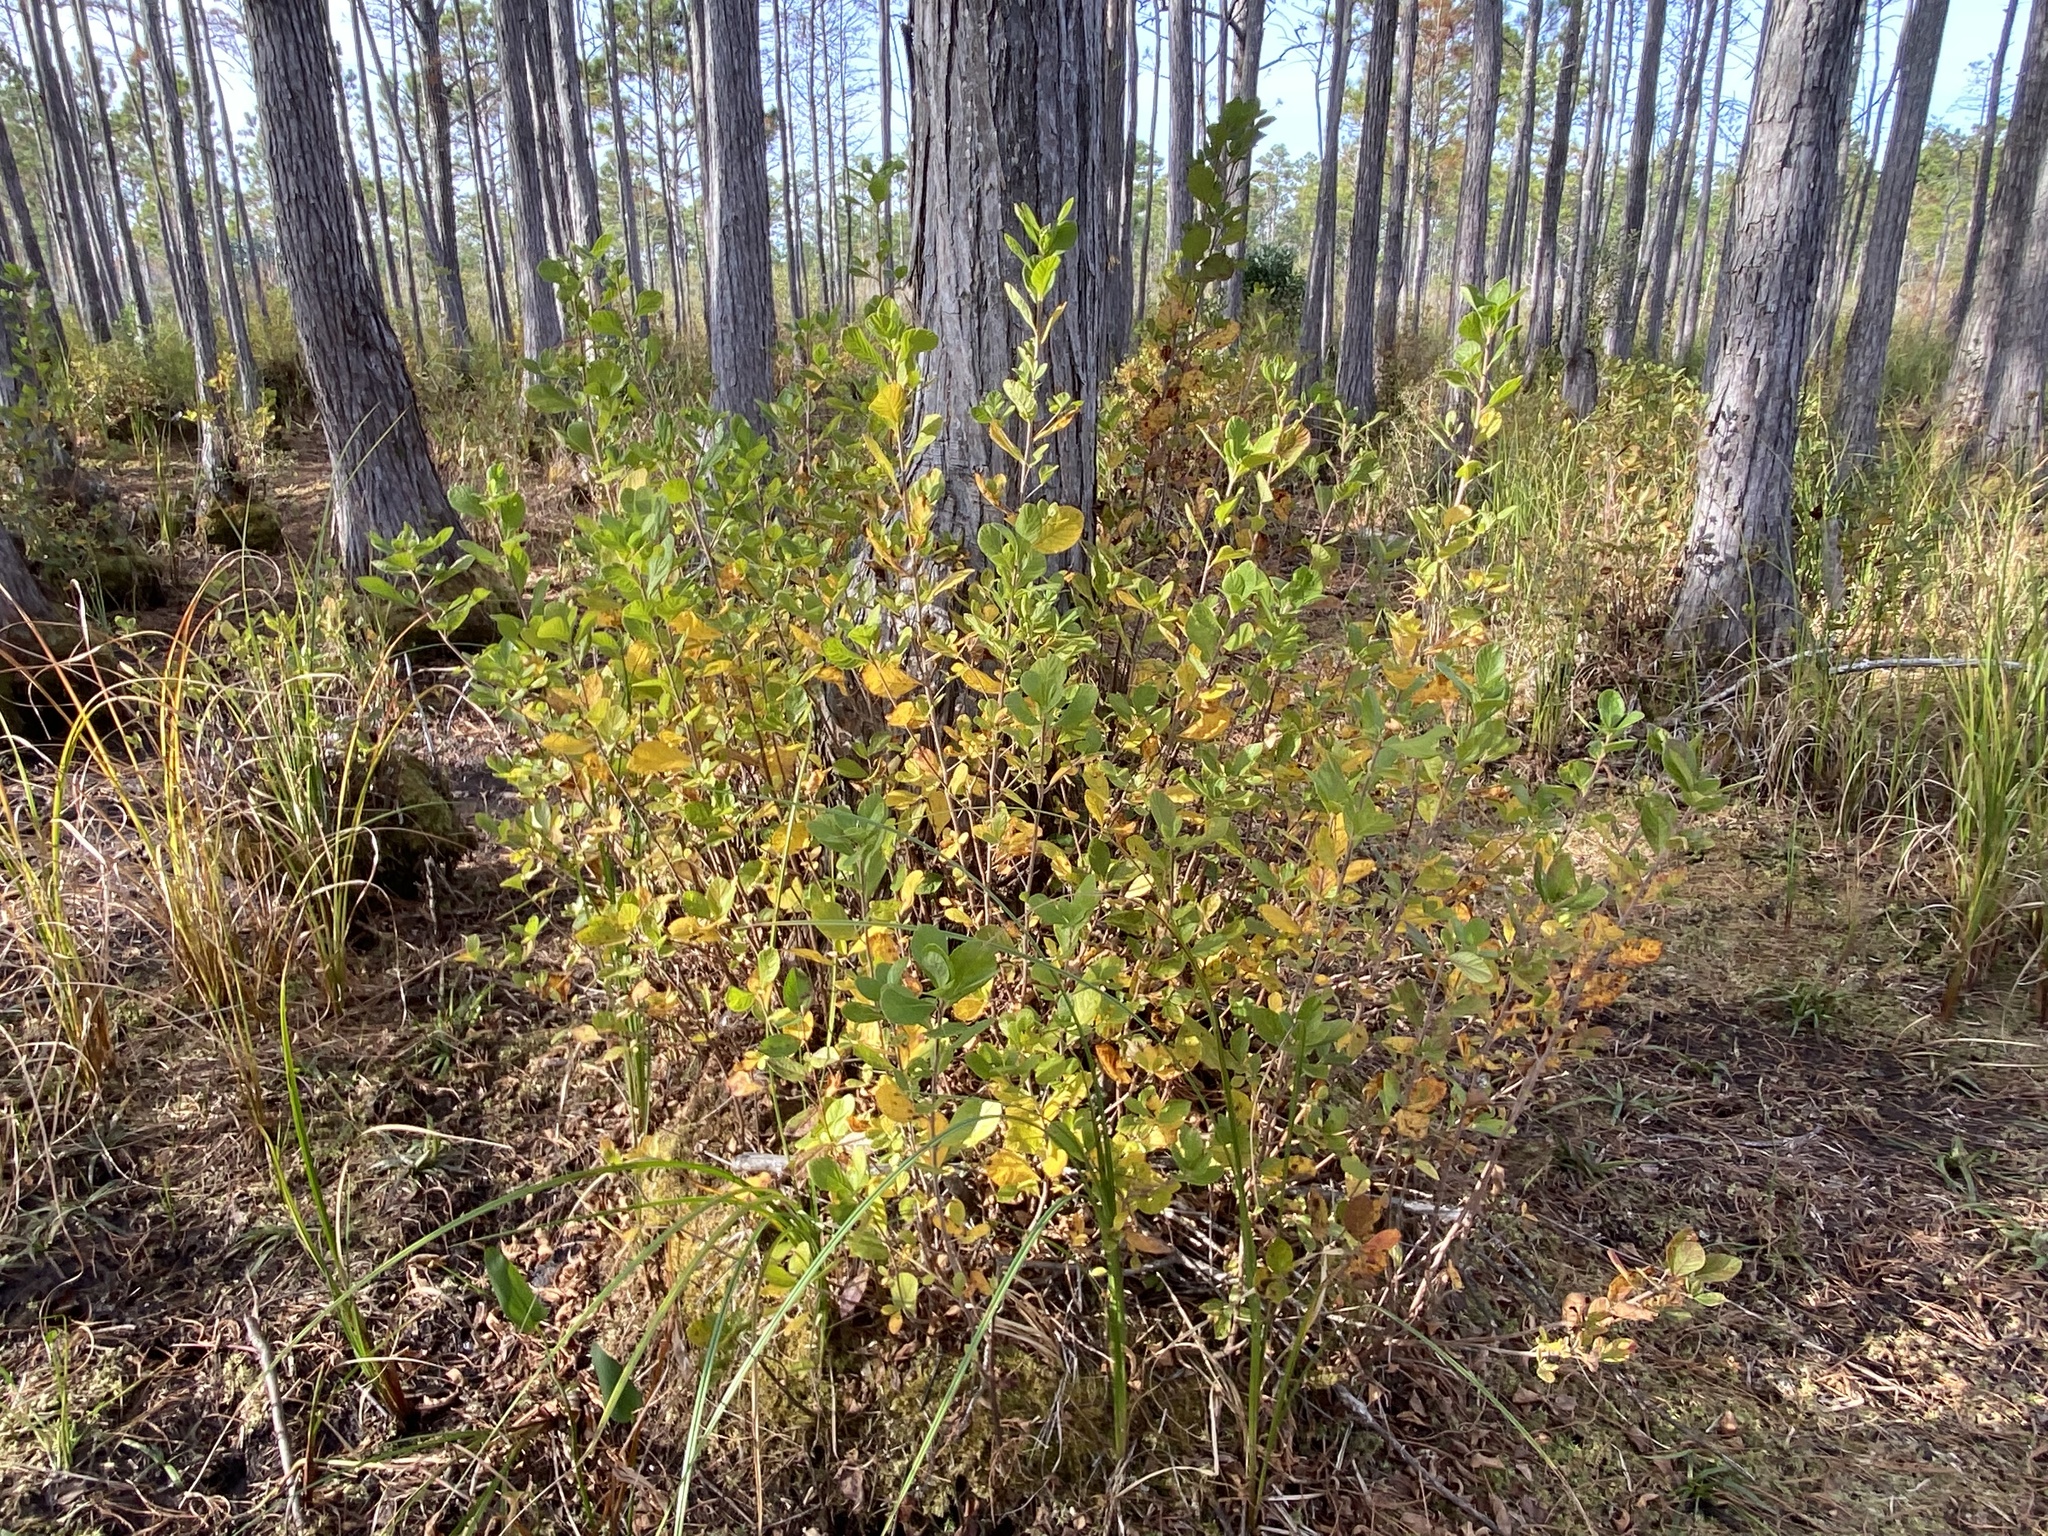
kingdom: Plantae
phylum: Tracheophyta
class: Magnoliopsida
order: Ericales
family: Clethraceae
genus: Clethra
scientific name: Clethra tomentosa
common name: Downy sweet pepperbush
